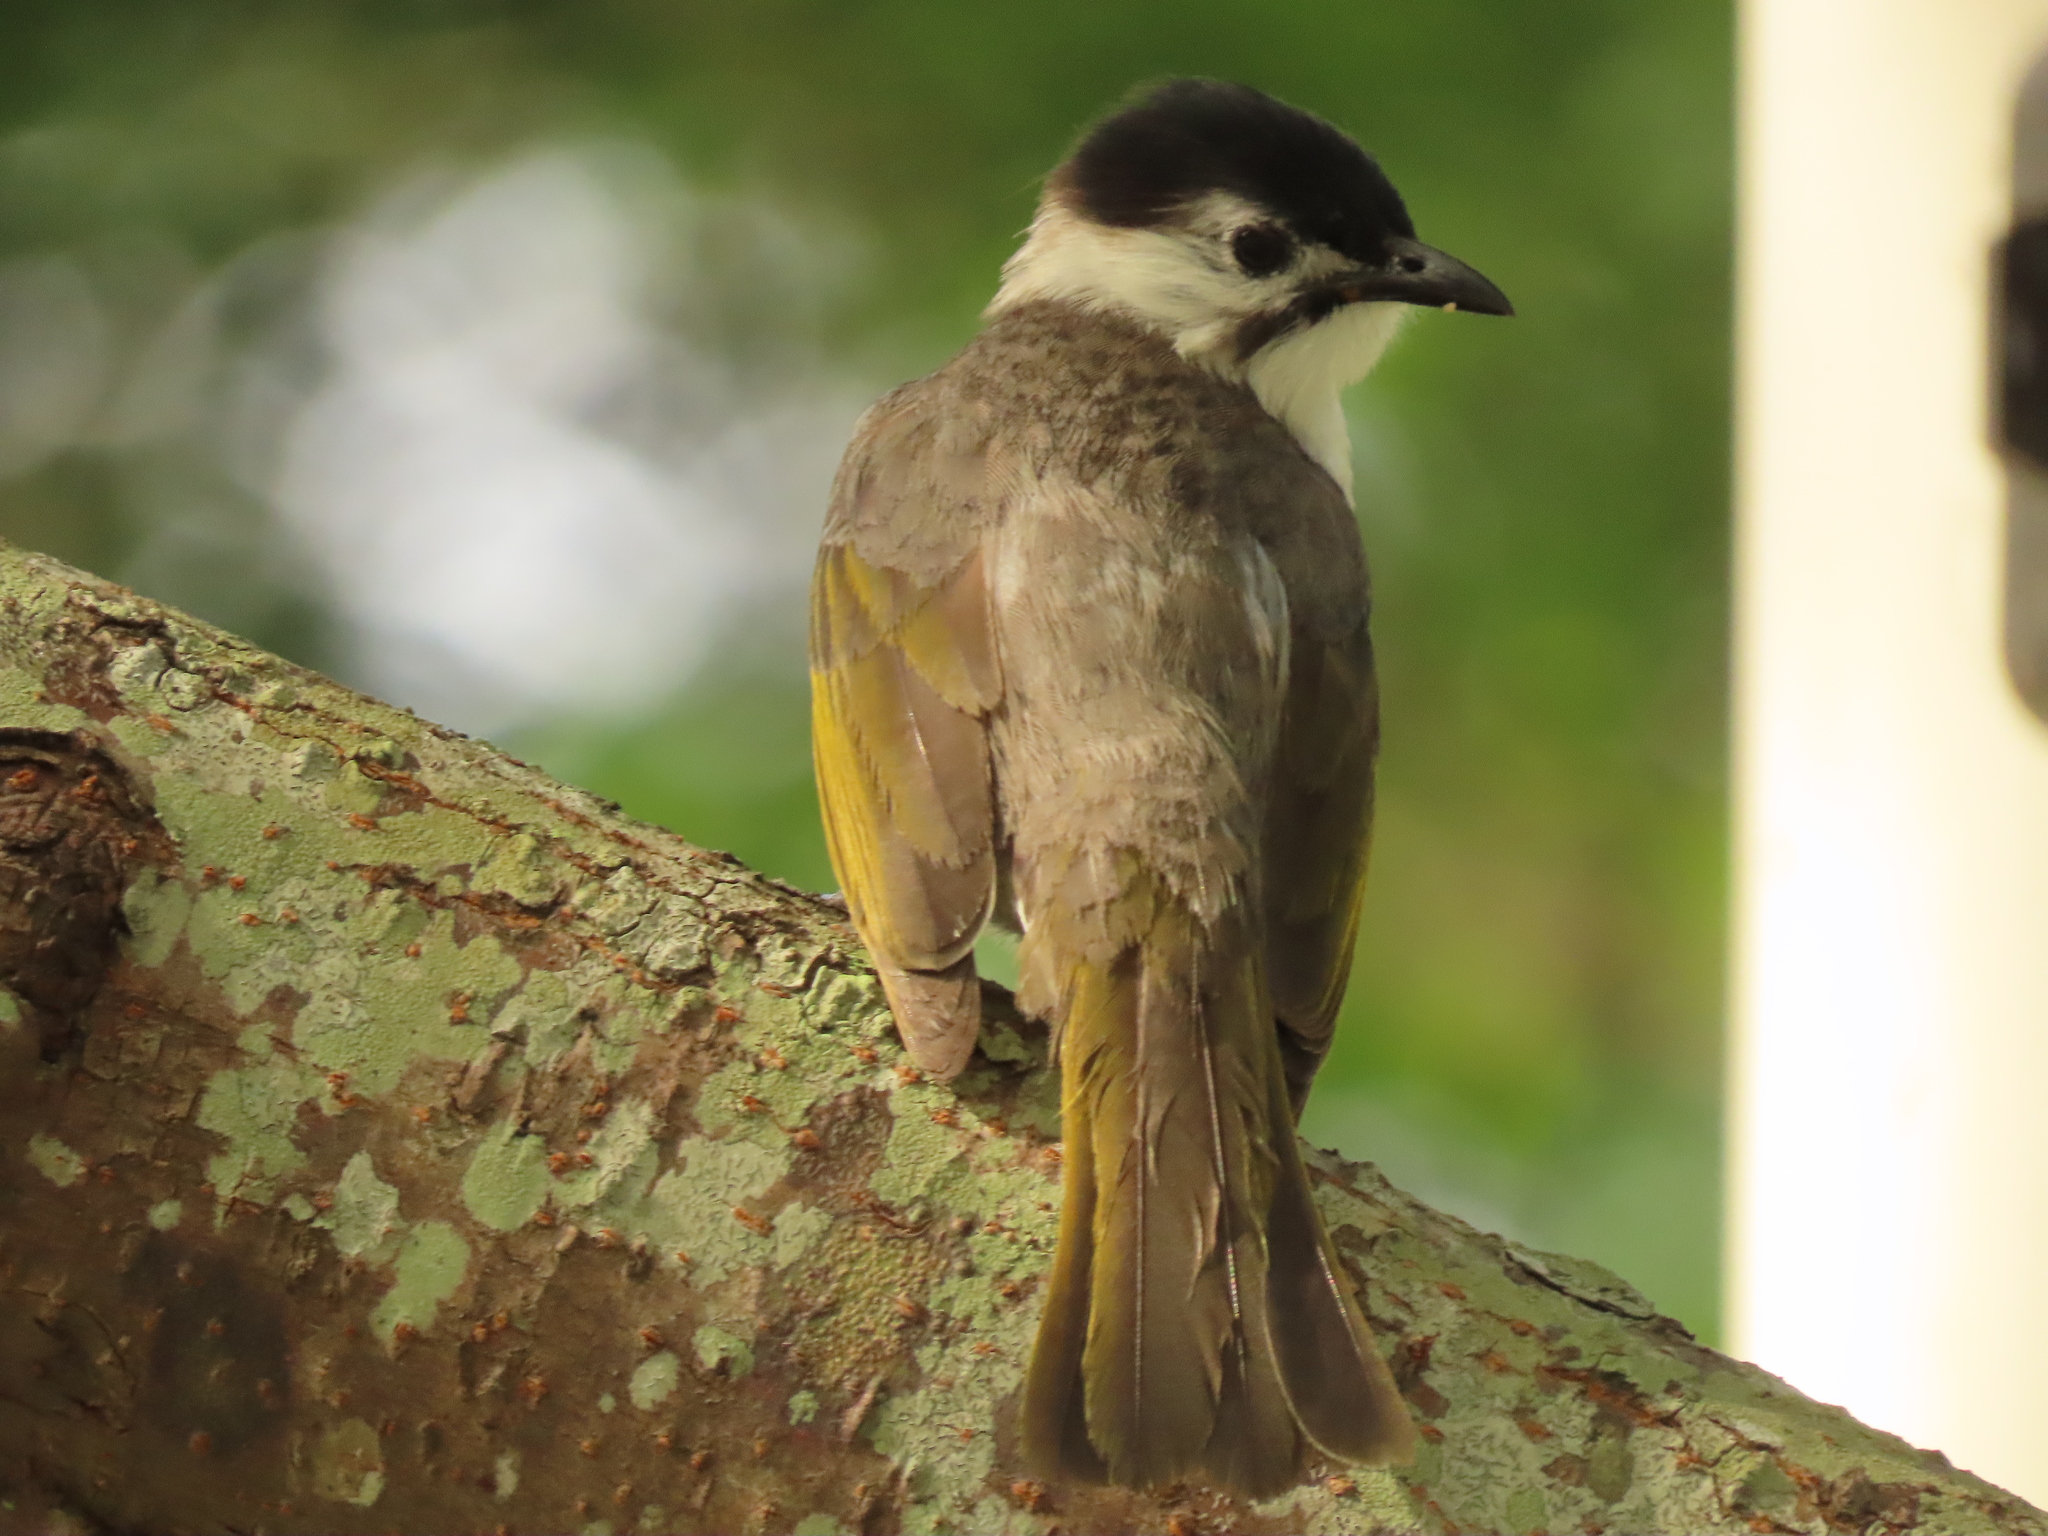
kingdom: Animalia
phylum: Chordata
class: Aves
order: Passeriformes
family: Pycnonotidae
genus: Pycnonotus
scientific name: Pycnonotus taivanus
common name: Styan's bulbul
